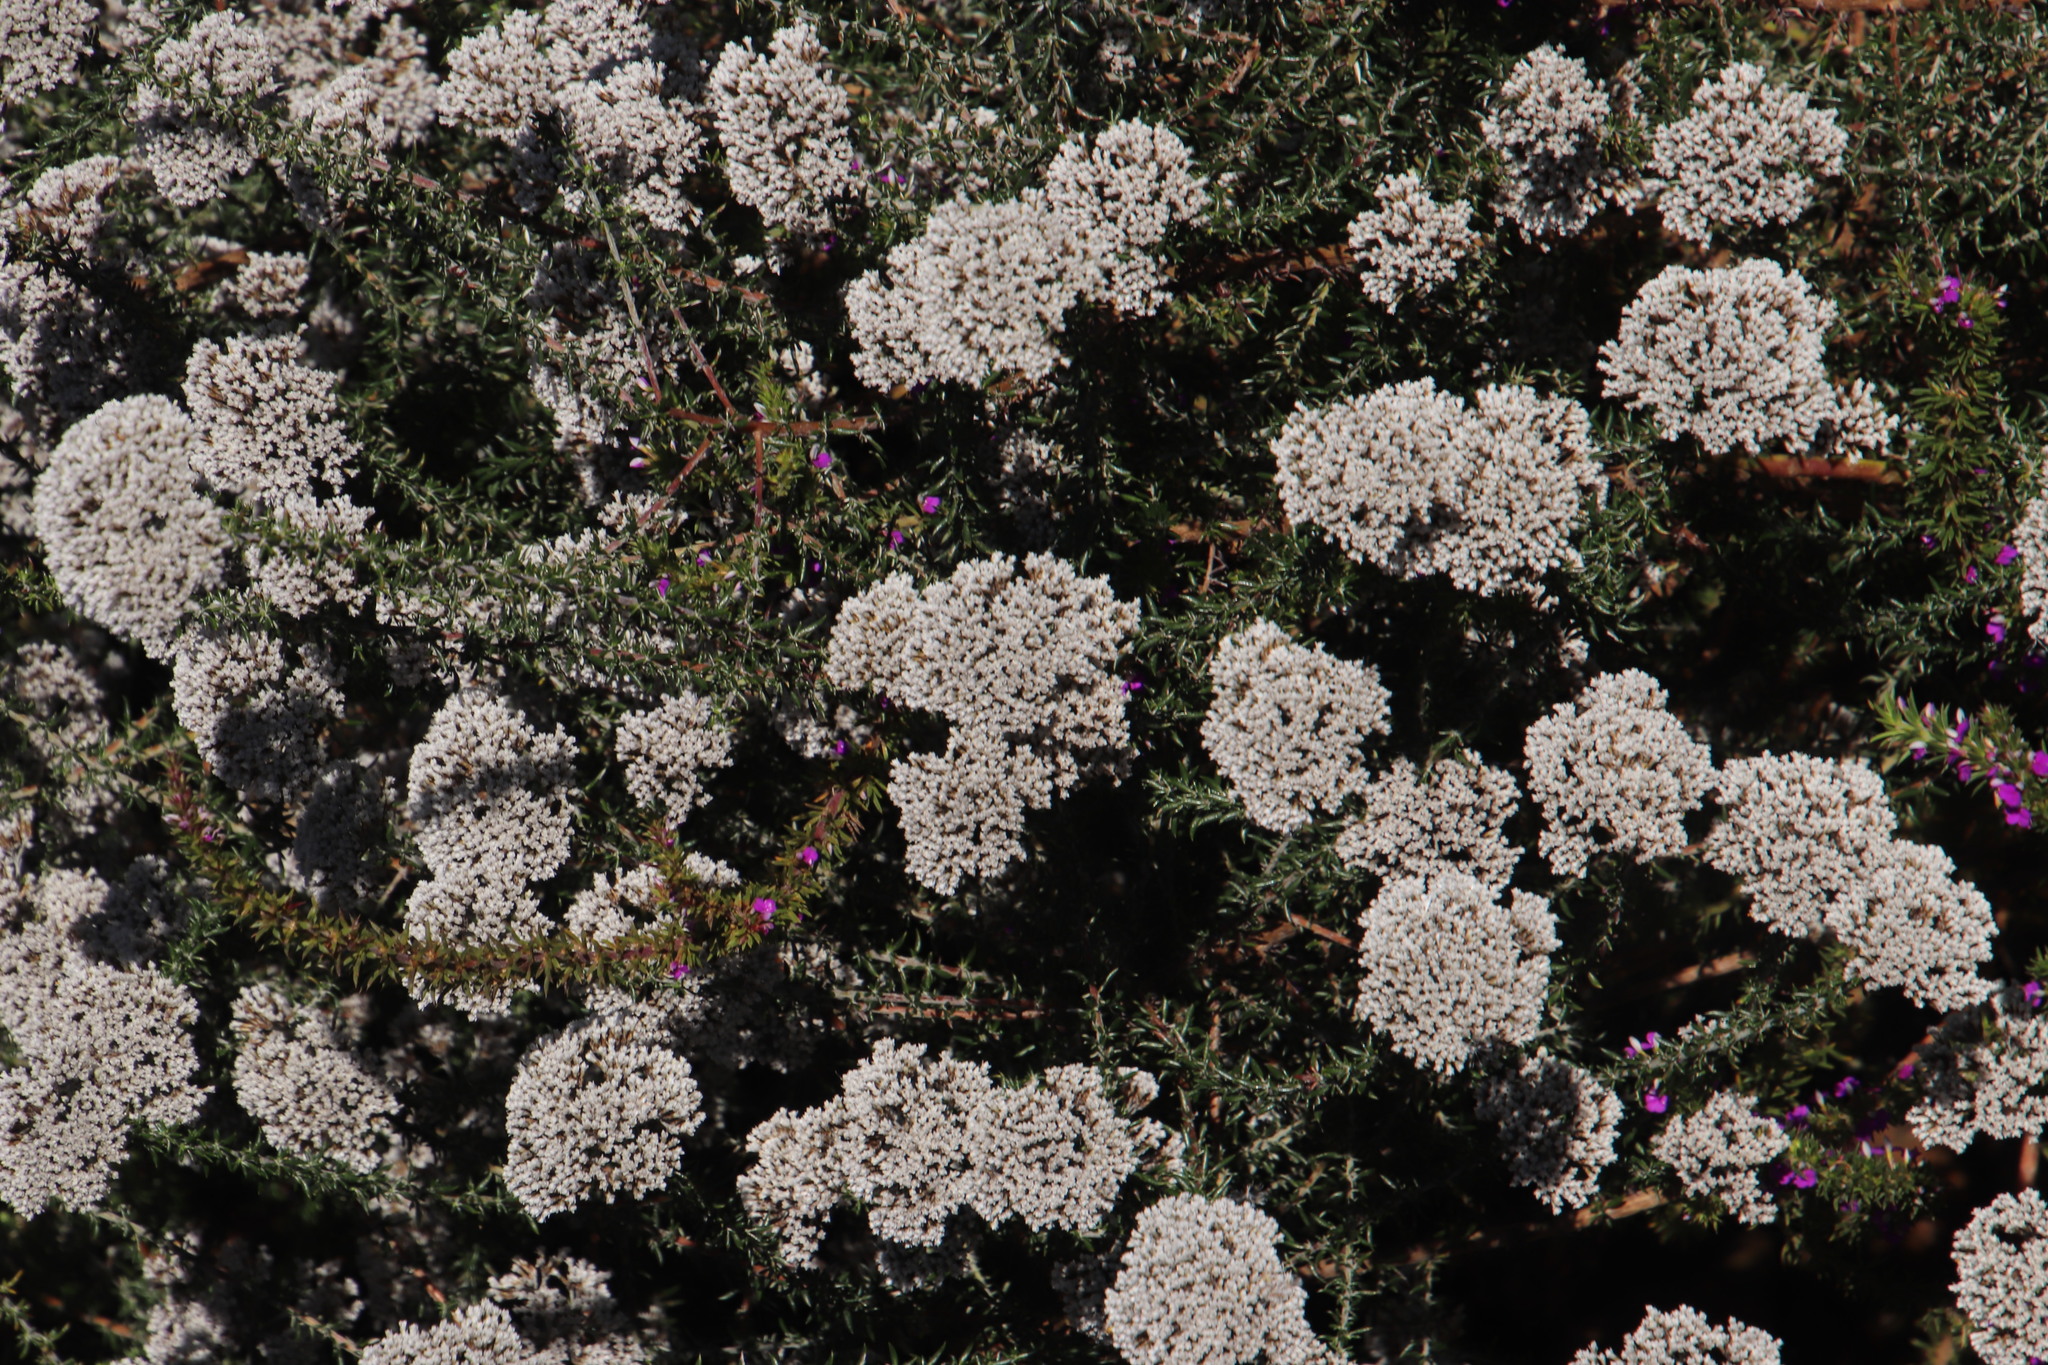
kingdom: Plantae
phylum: Tracheophyta
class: Magnoliopsida
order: Asterales
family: Asteraceae
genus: Metalasia
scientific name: Metalasia densa
